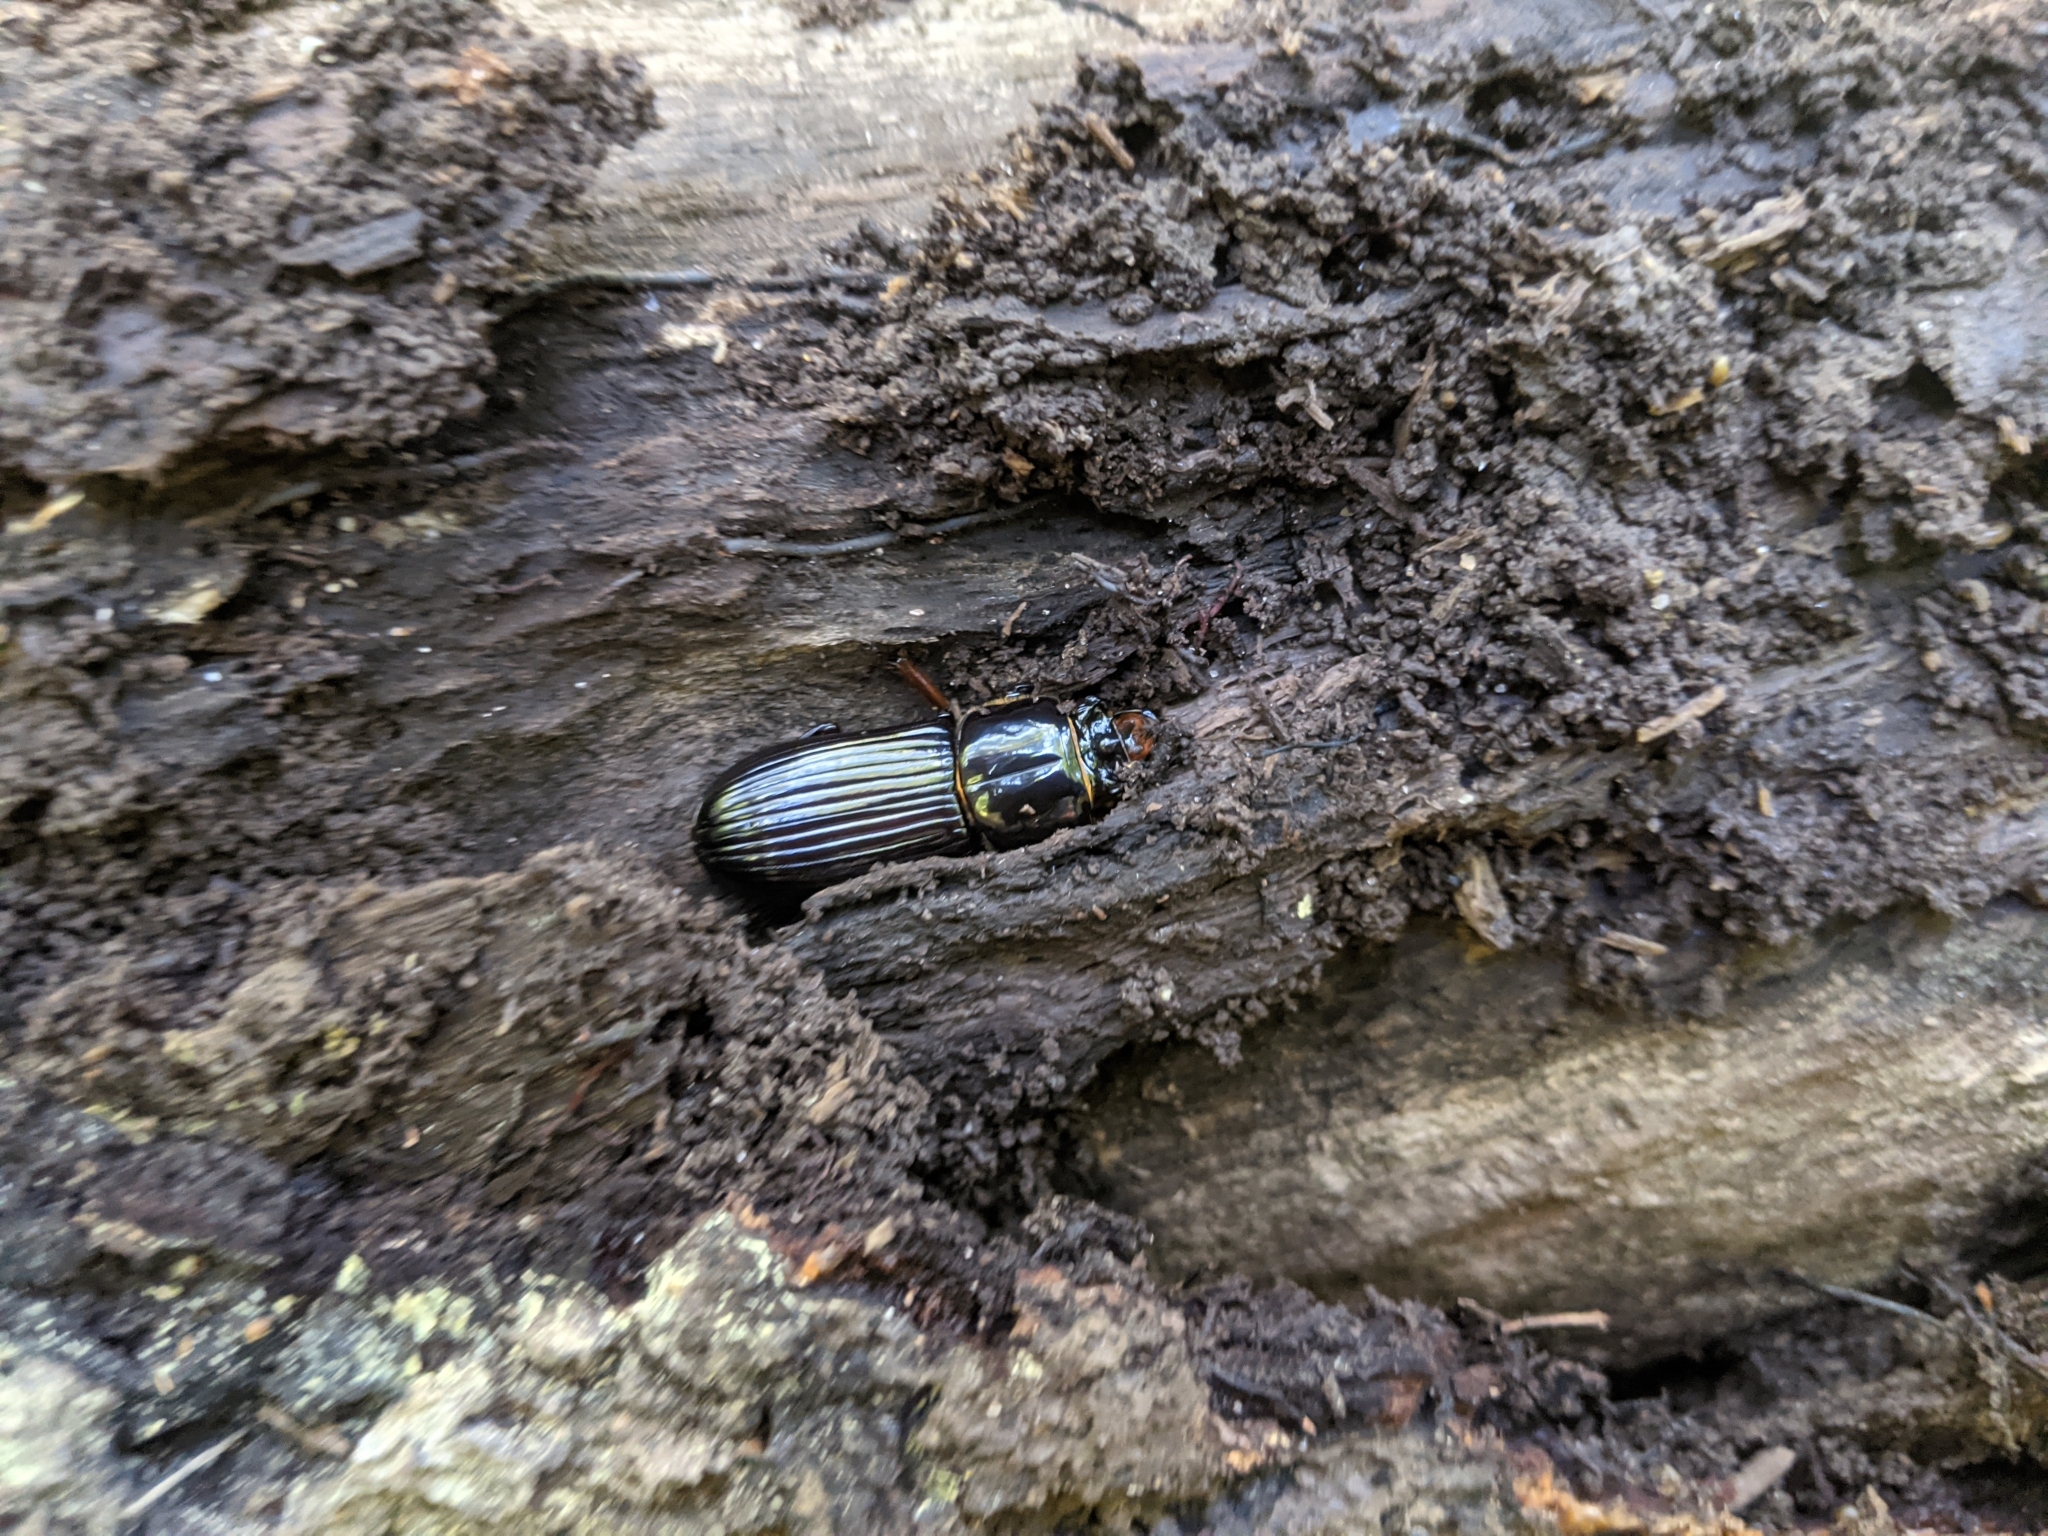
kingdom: Animalia
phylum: Arthropoda
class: Insecta
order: Coleoptera
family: Passalidae
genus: Odontotaenius
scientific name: Odontotaenius disjunctus
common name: Patent leather beetle
